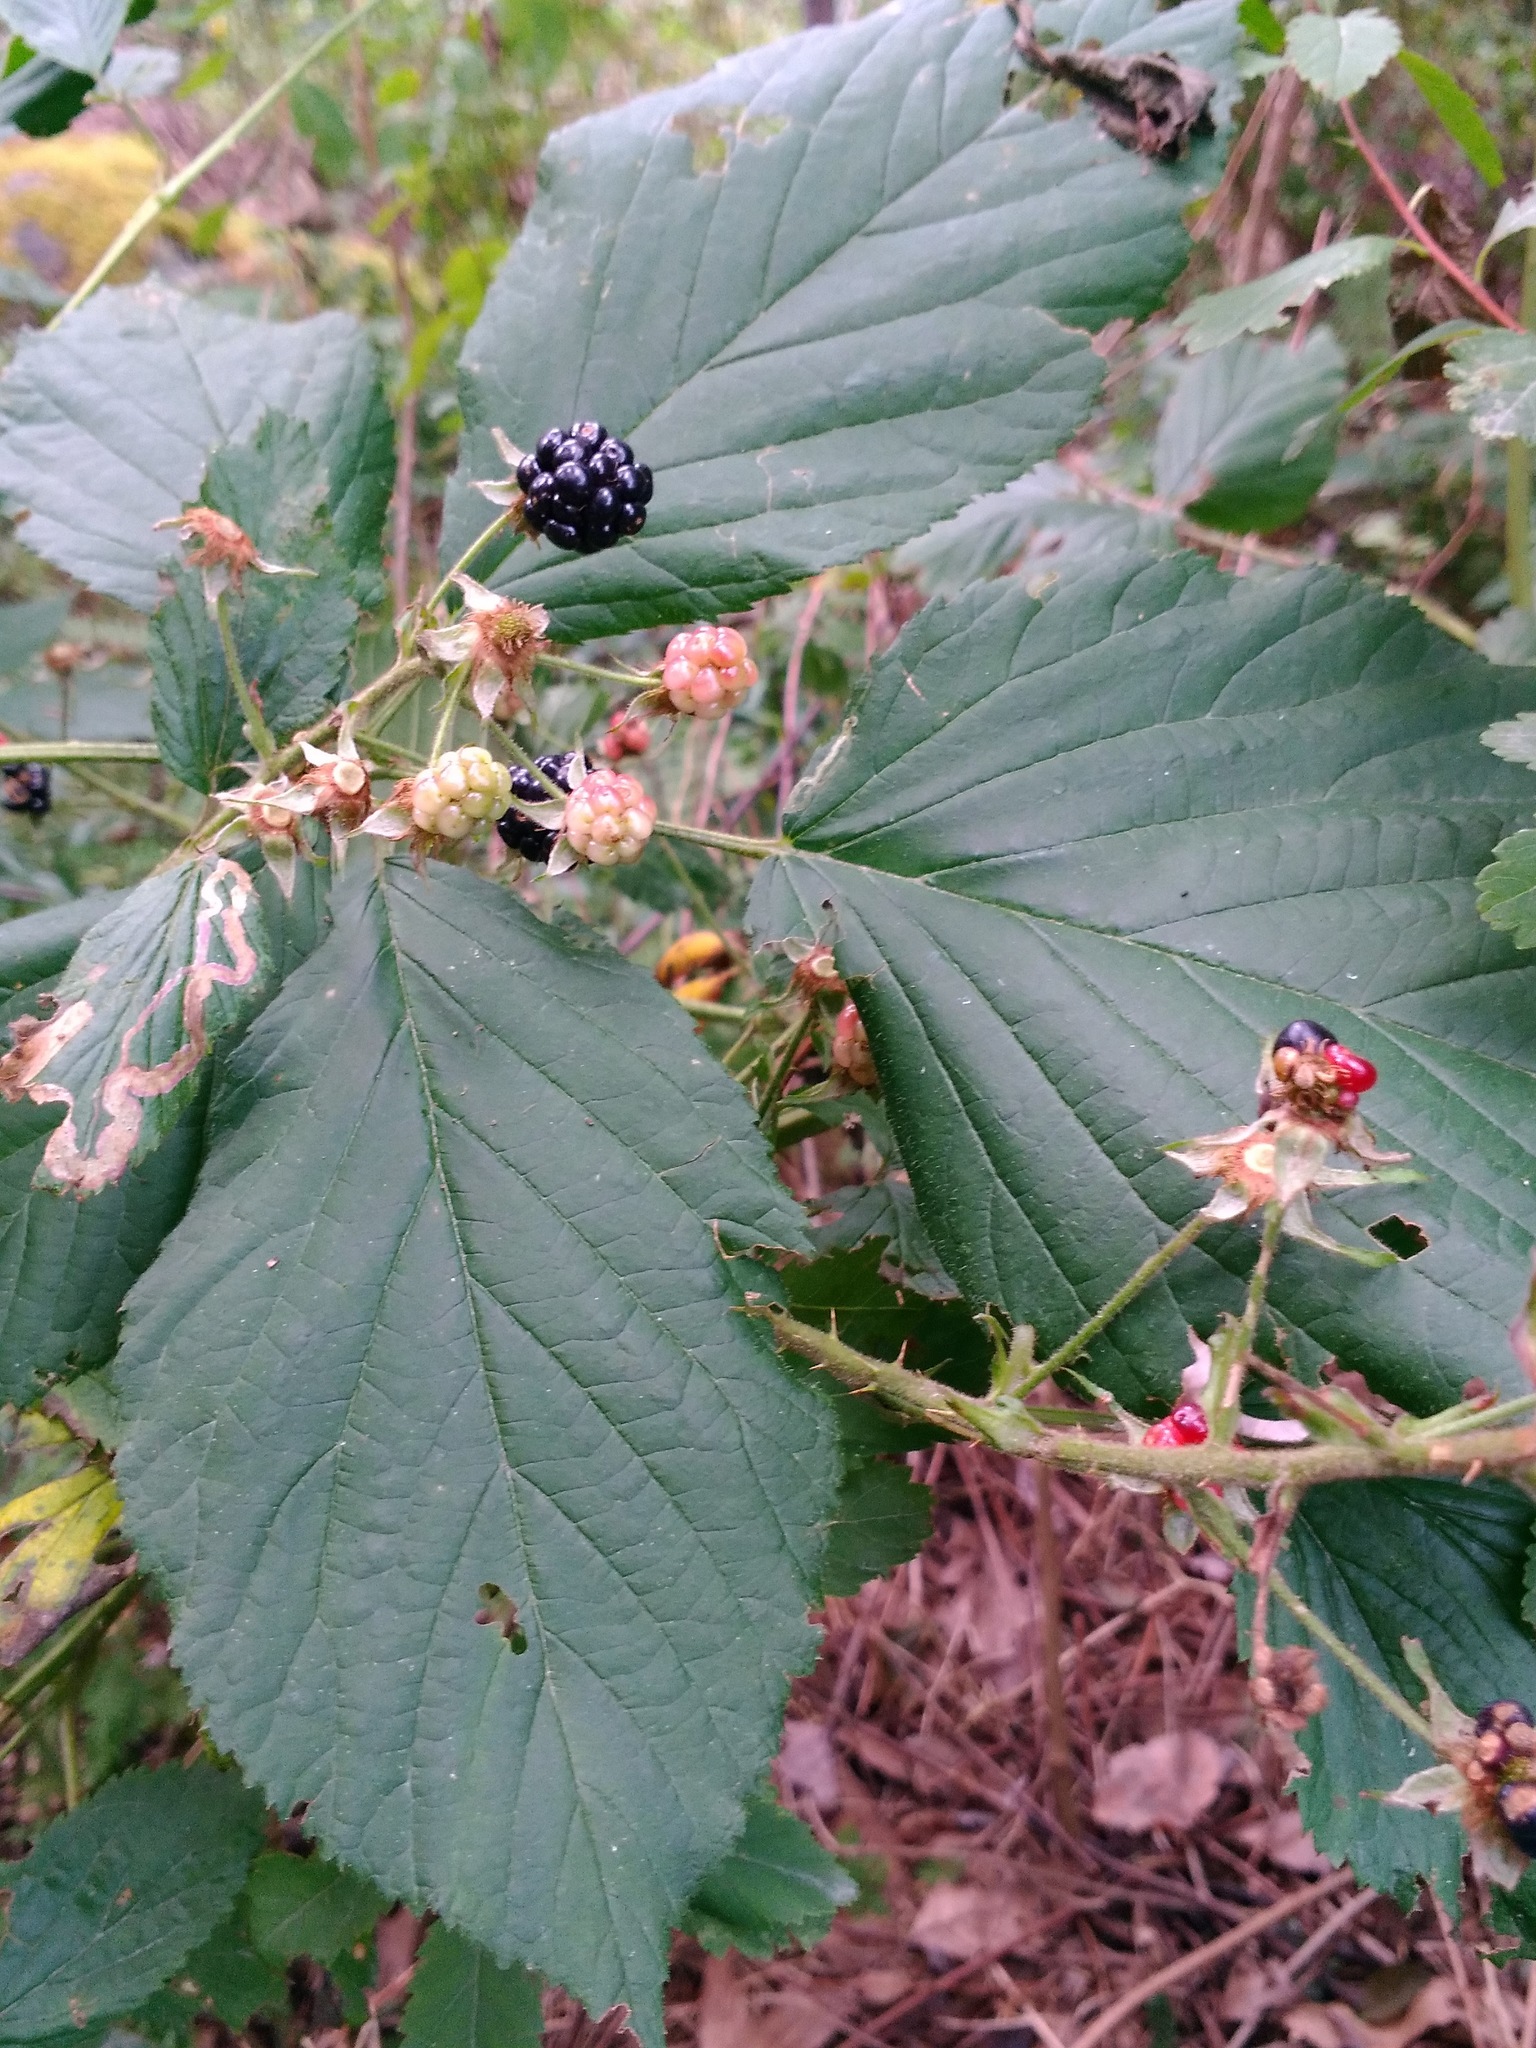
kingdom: Plantae
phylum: Tracheophyta
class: Magnoliopsida
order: Rosales
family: Rosaceae
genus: Rubus
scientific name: Rubus allegheniensis
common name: Allegheny blackberry
